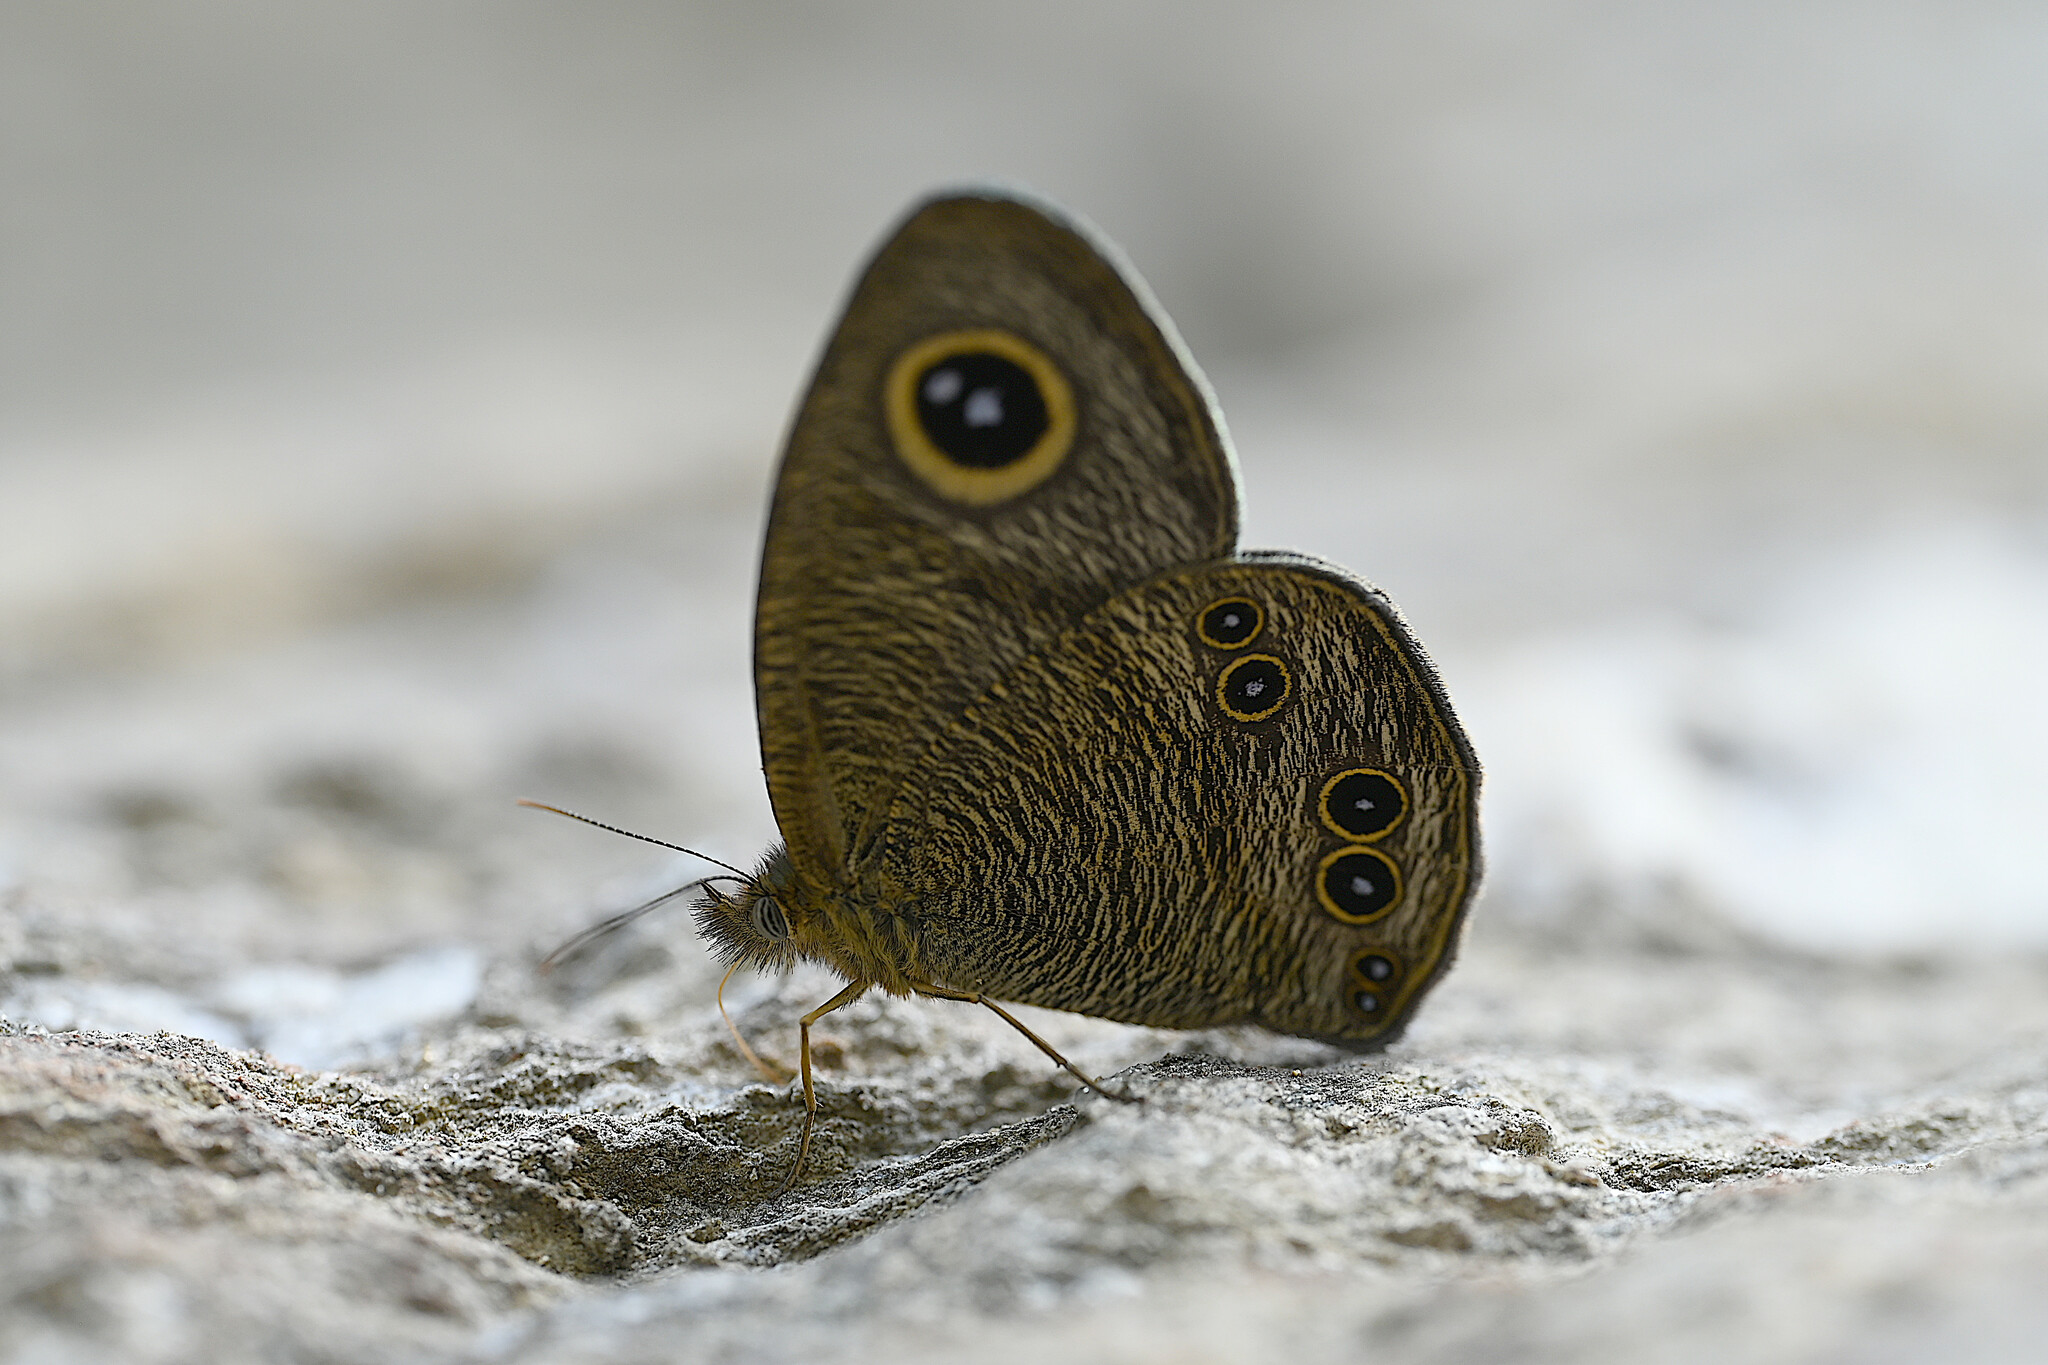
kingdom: Animalia
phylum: Arthropoda
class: Insecta
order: Lepidoptera
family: Nymphalidae
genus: Ypthima
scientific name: Ypthima baldus
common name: Common five-ring
